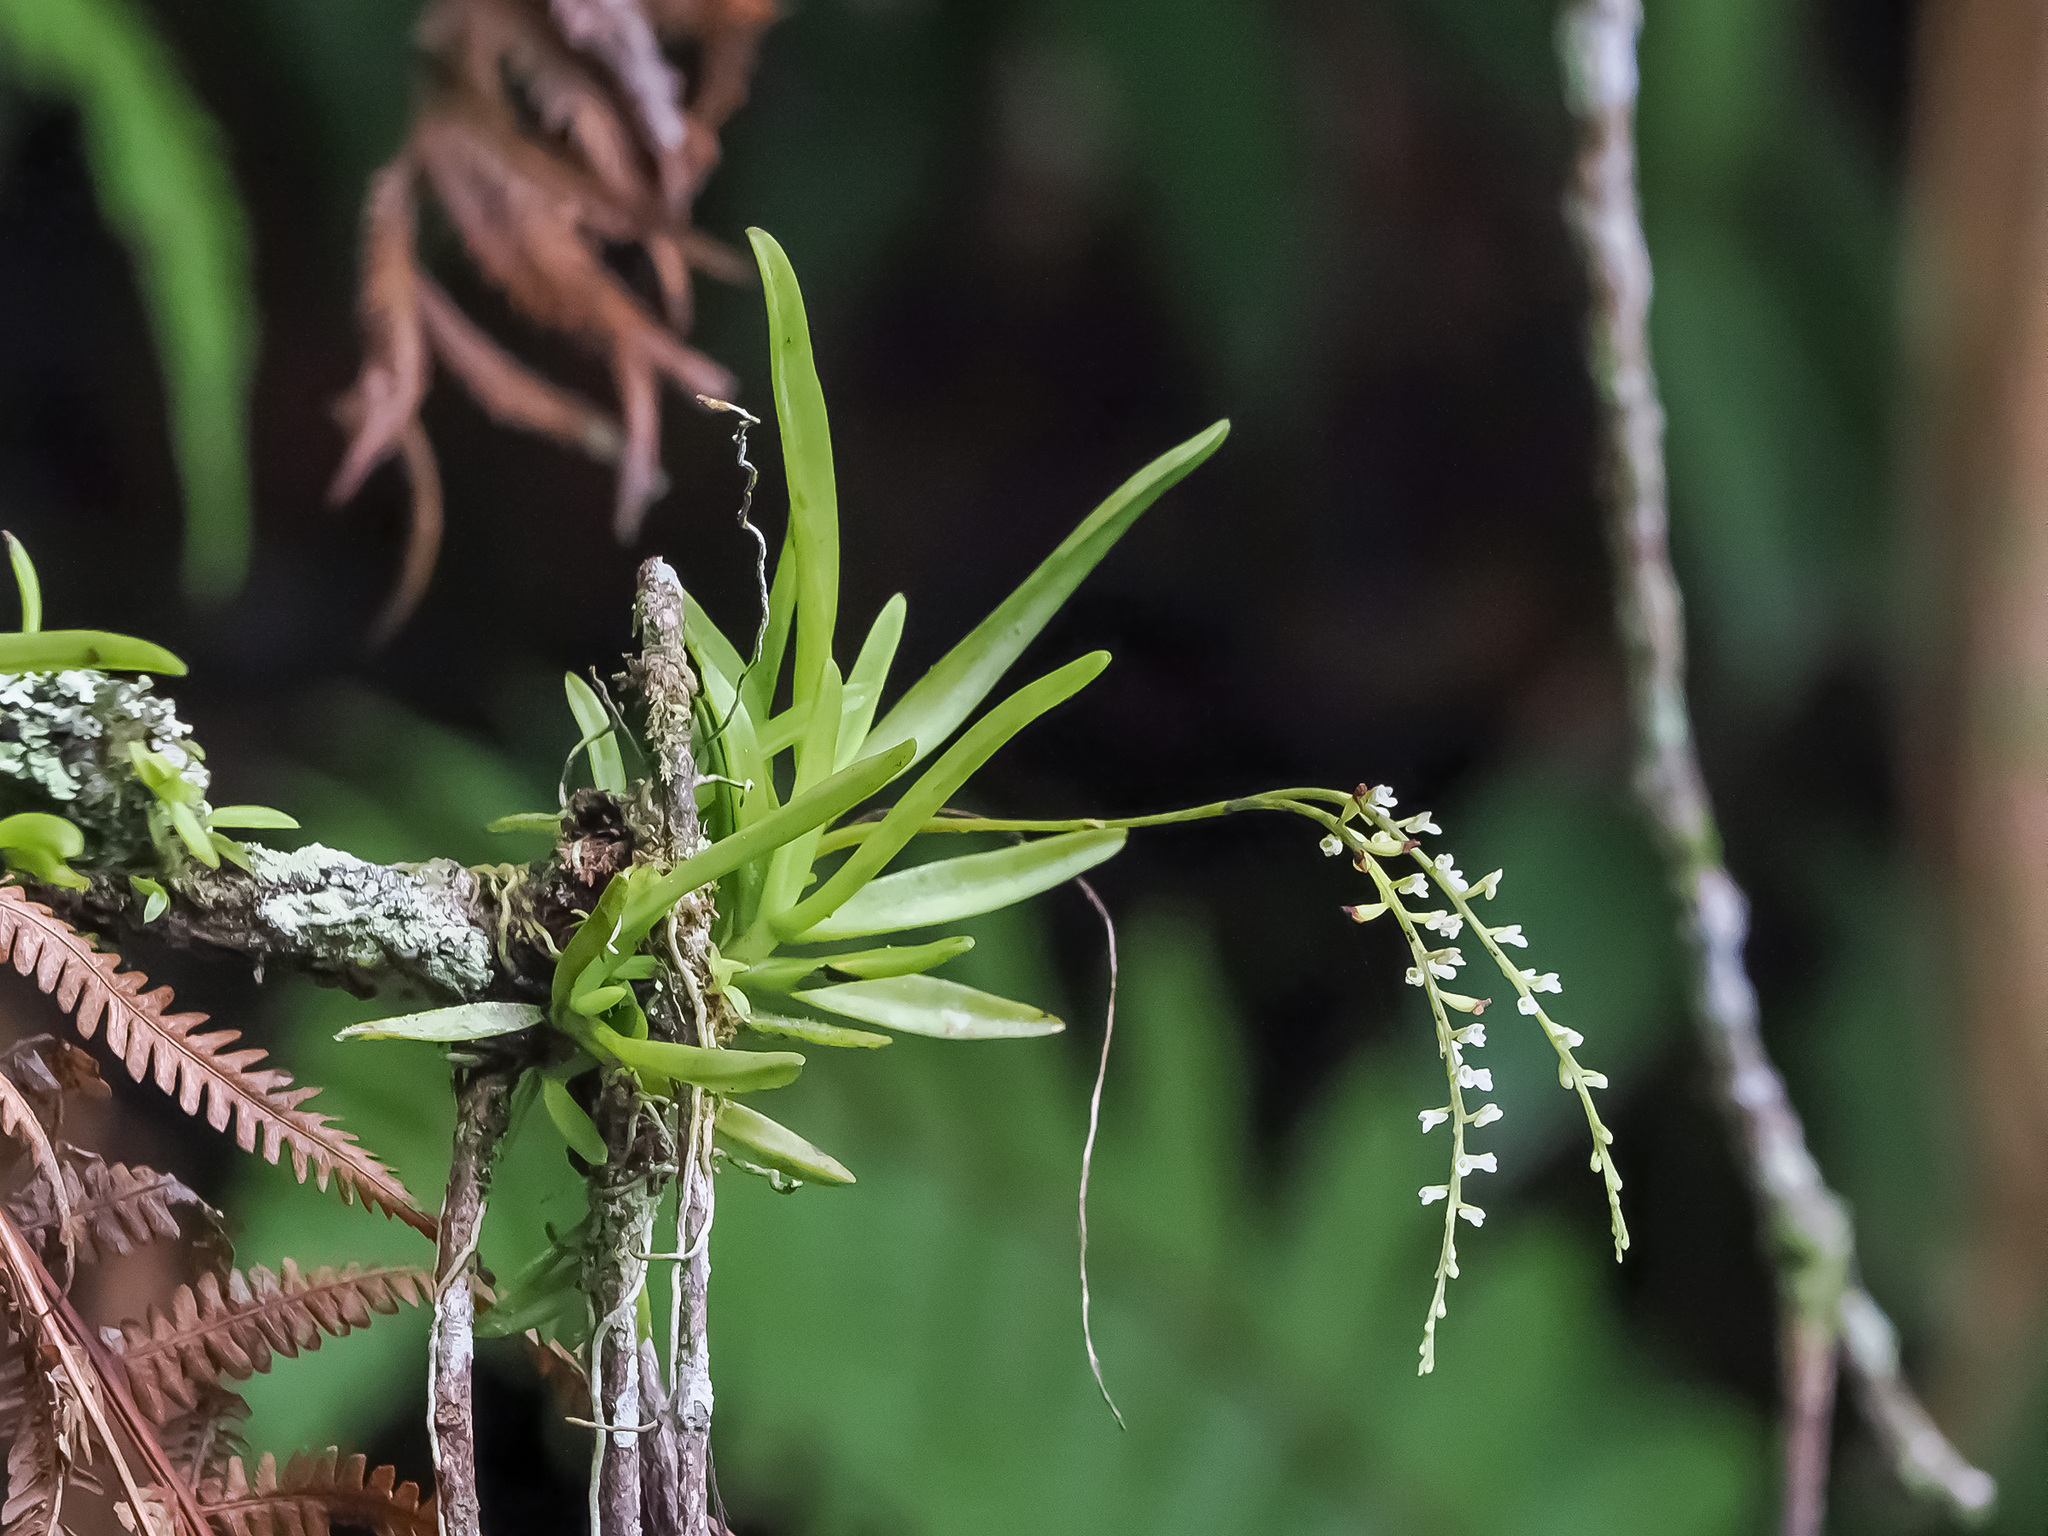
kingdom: Plantae
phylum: Tracheophyta
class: Liliopsida
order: Asparagales
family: Orchidaceae
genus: Schoenorchis
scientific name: Schoenorchis gemmata
